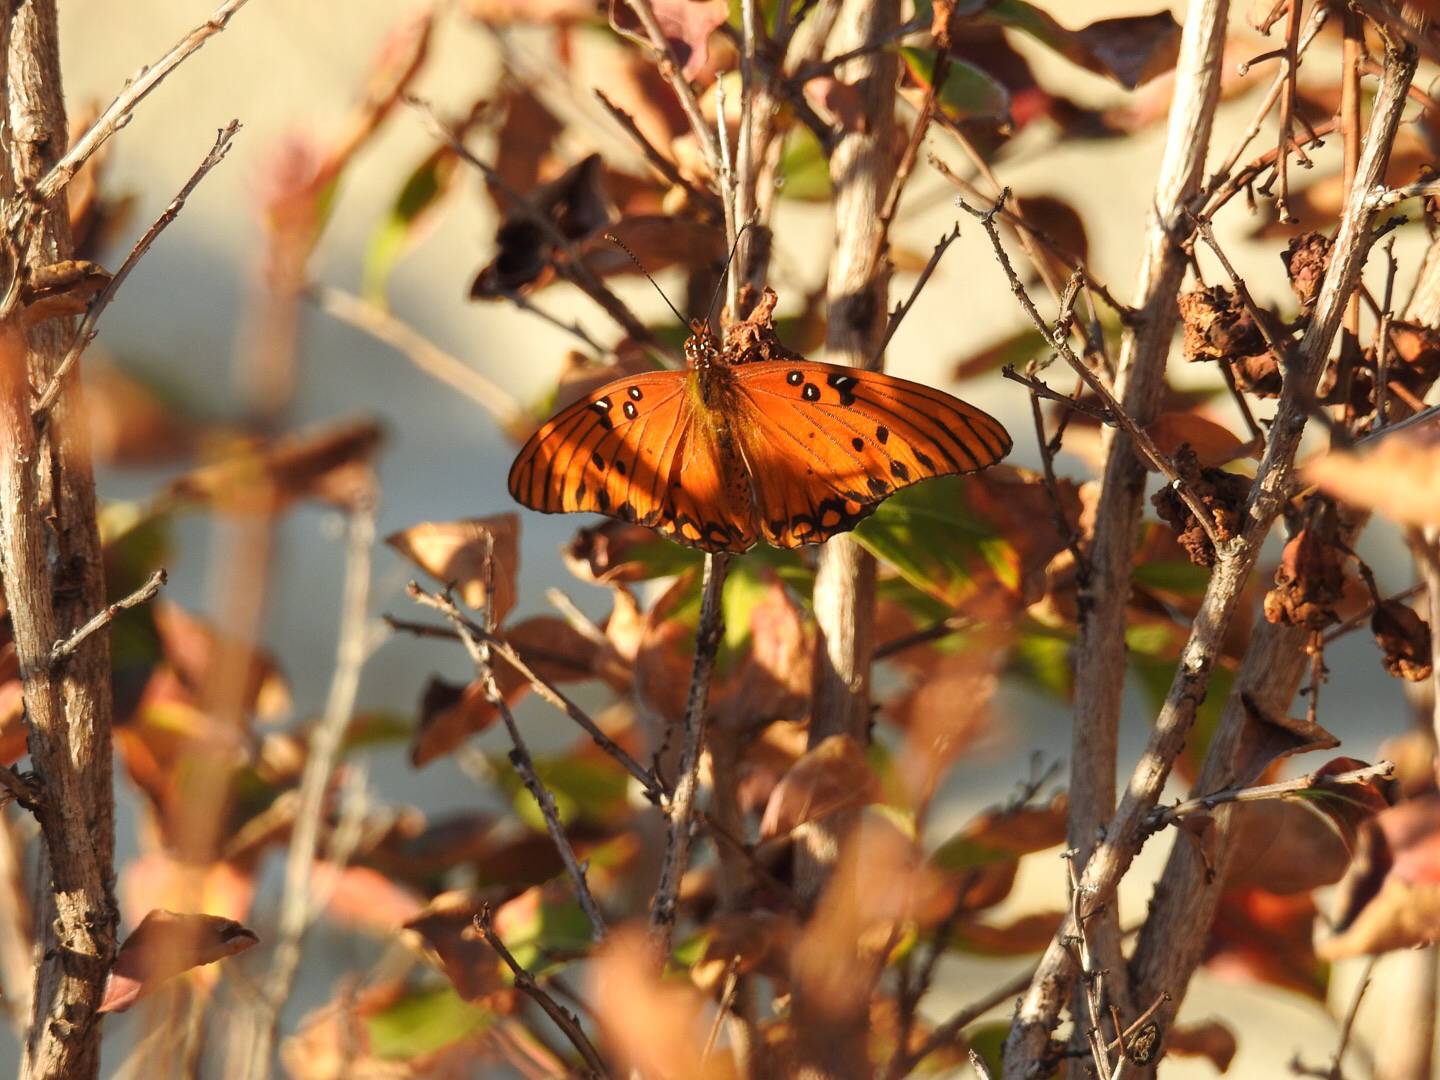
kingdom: Animalia
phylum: Arthropoda
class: Insecta
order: Lepidoptera
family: Nymphalidae
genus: Dione
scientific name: Dione vanillae
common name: Gulf fritillary
